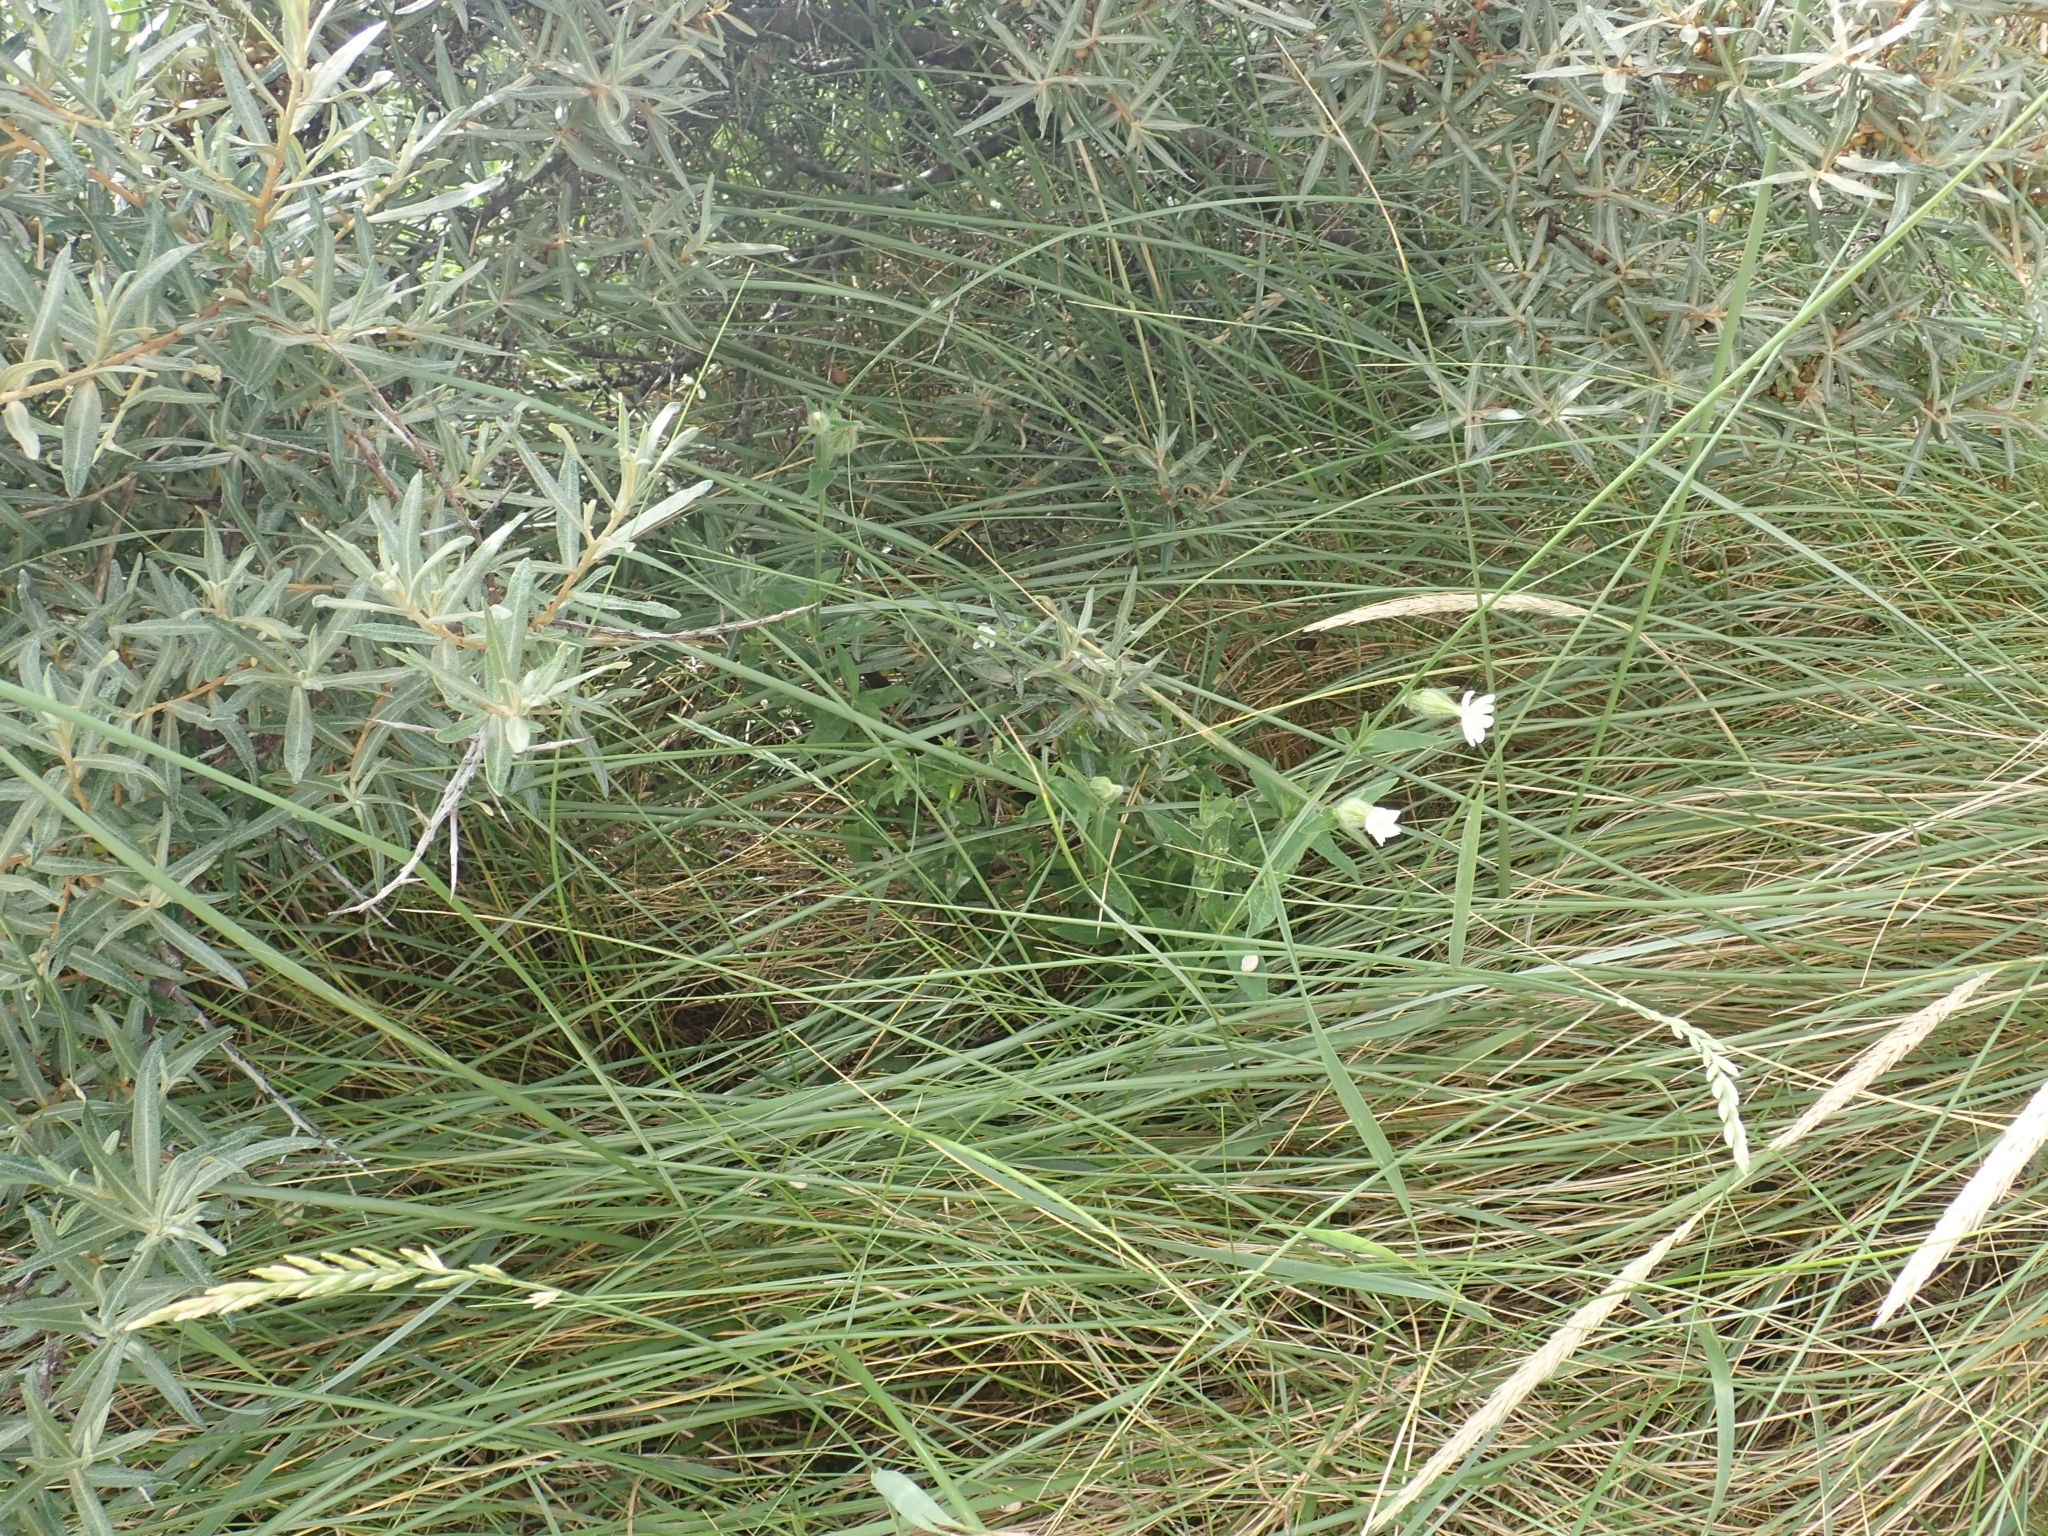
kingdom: Plantae
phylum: Tracheophyta
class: Magnoliopsida
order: Caryophyllales
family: Caryophyllaceae
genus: Silene
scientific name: Silene latifolia
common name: White campion
